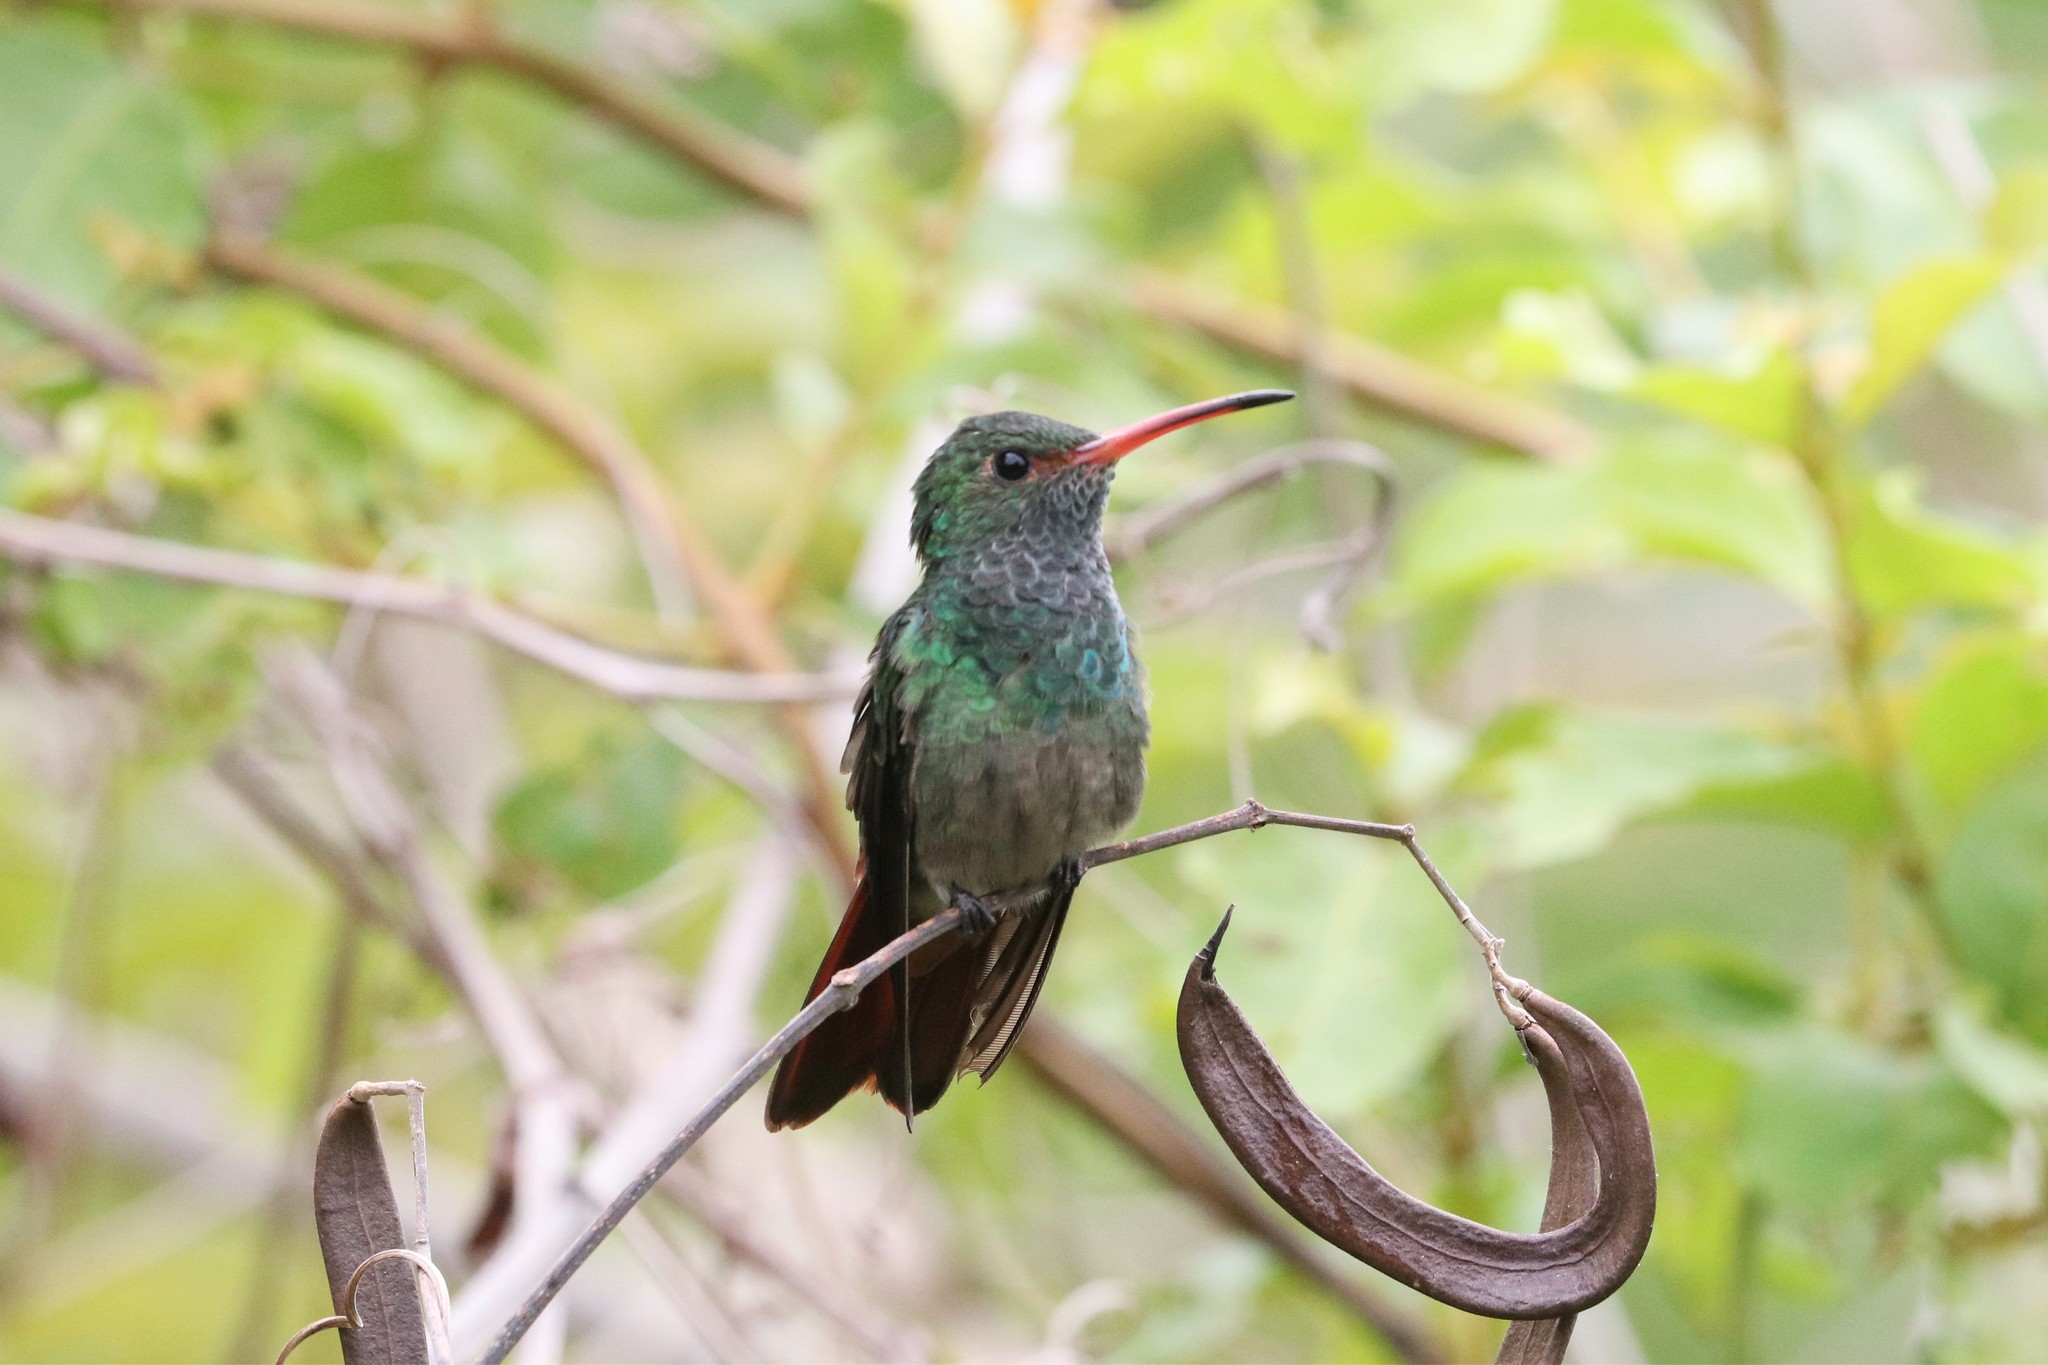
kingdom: Animalia
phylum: Chordata
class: Aves
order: Apodiformes
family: Trochilidae
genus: Amazilia
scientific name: Amazilia tzacatl
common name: Rufous-tailed hummingbird
